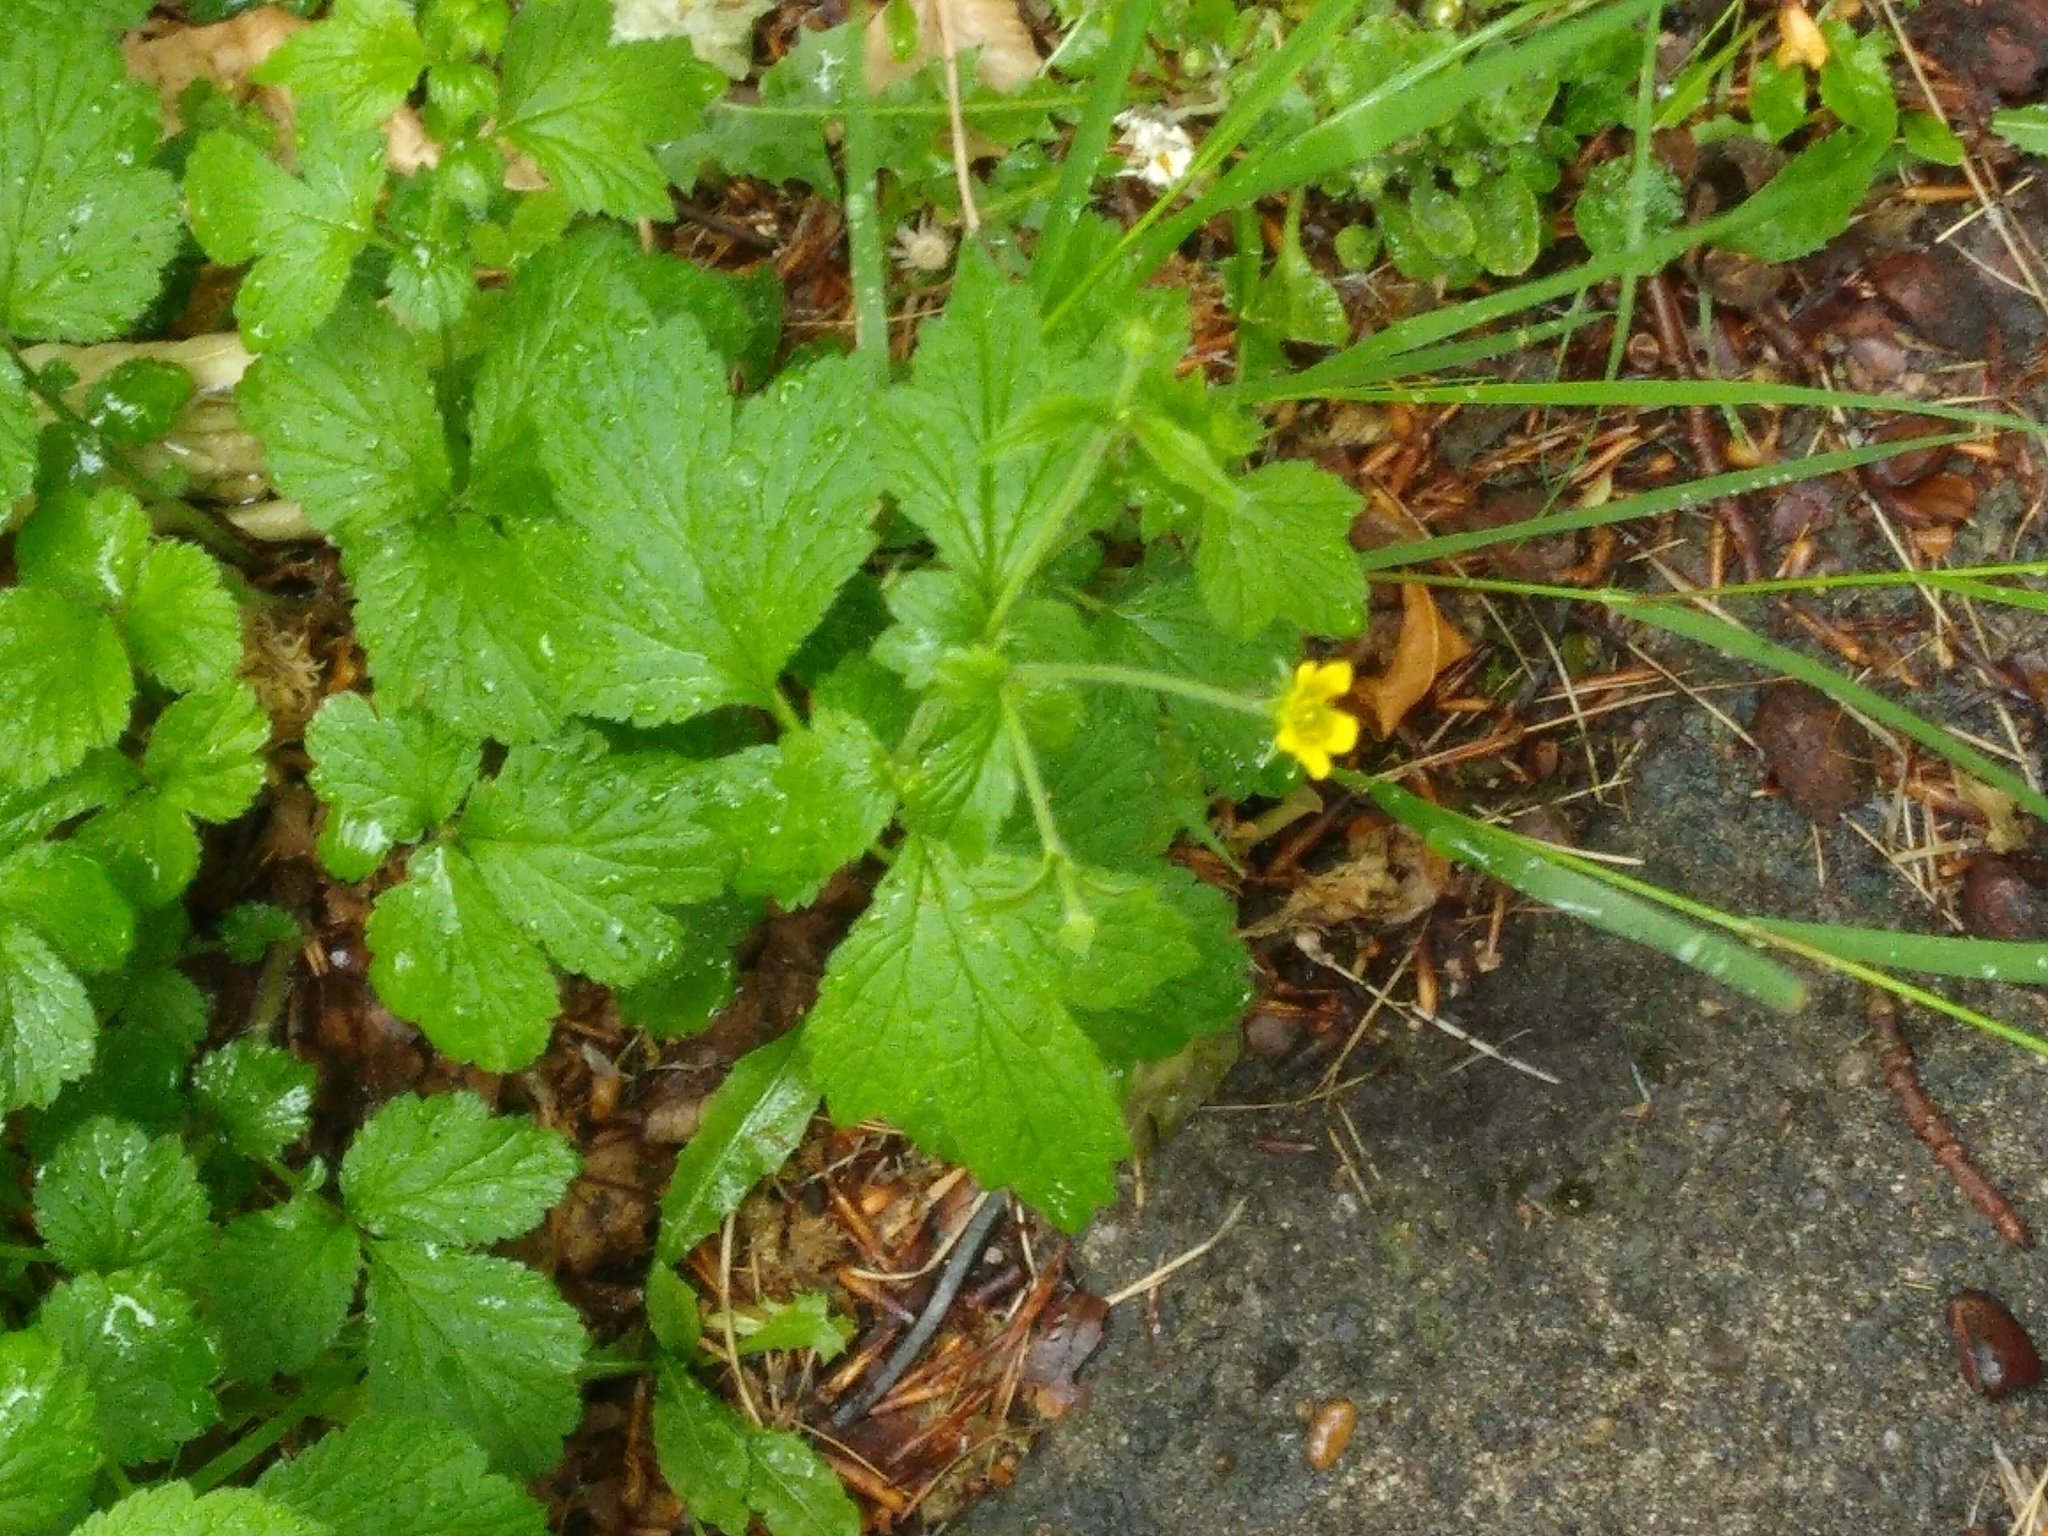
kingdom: Plantae
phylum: Tracheophyta
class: Magnoliopsida
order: Rosales
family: Rosaceae
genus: Geum
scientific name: Geum urbanum
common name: Wood avens
